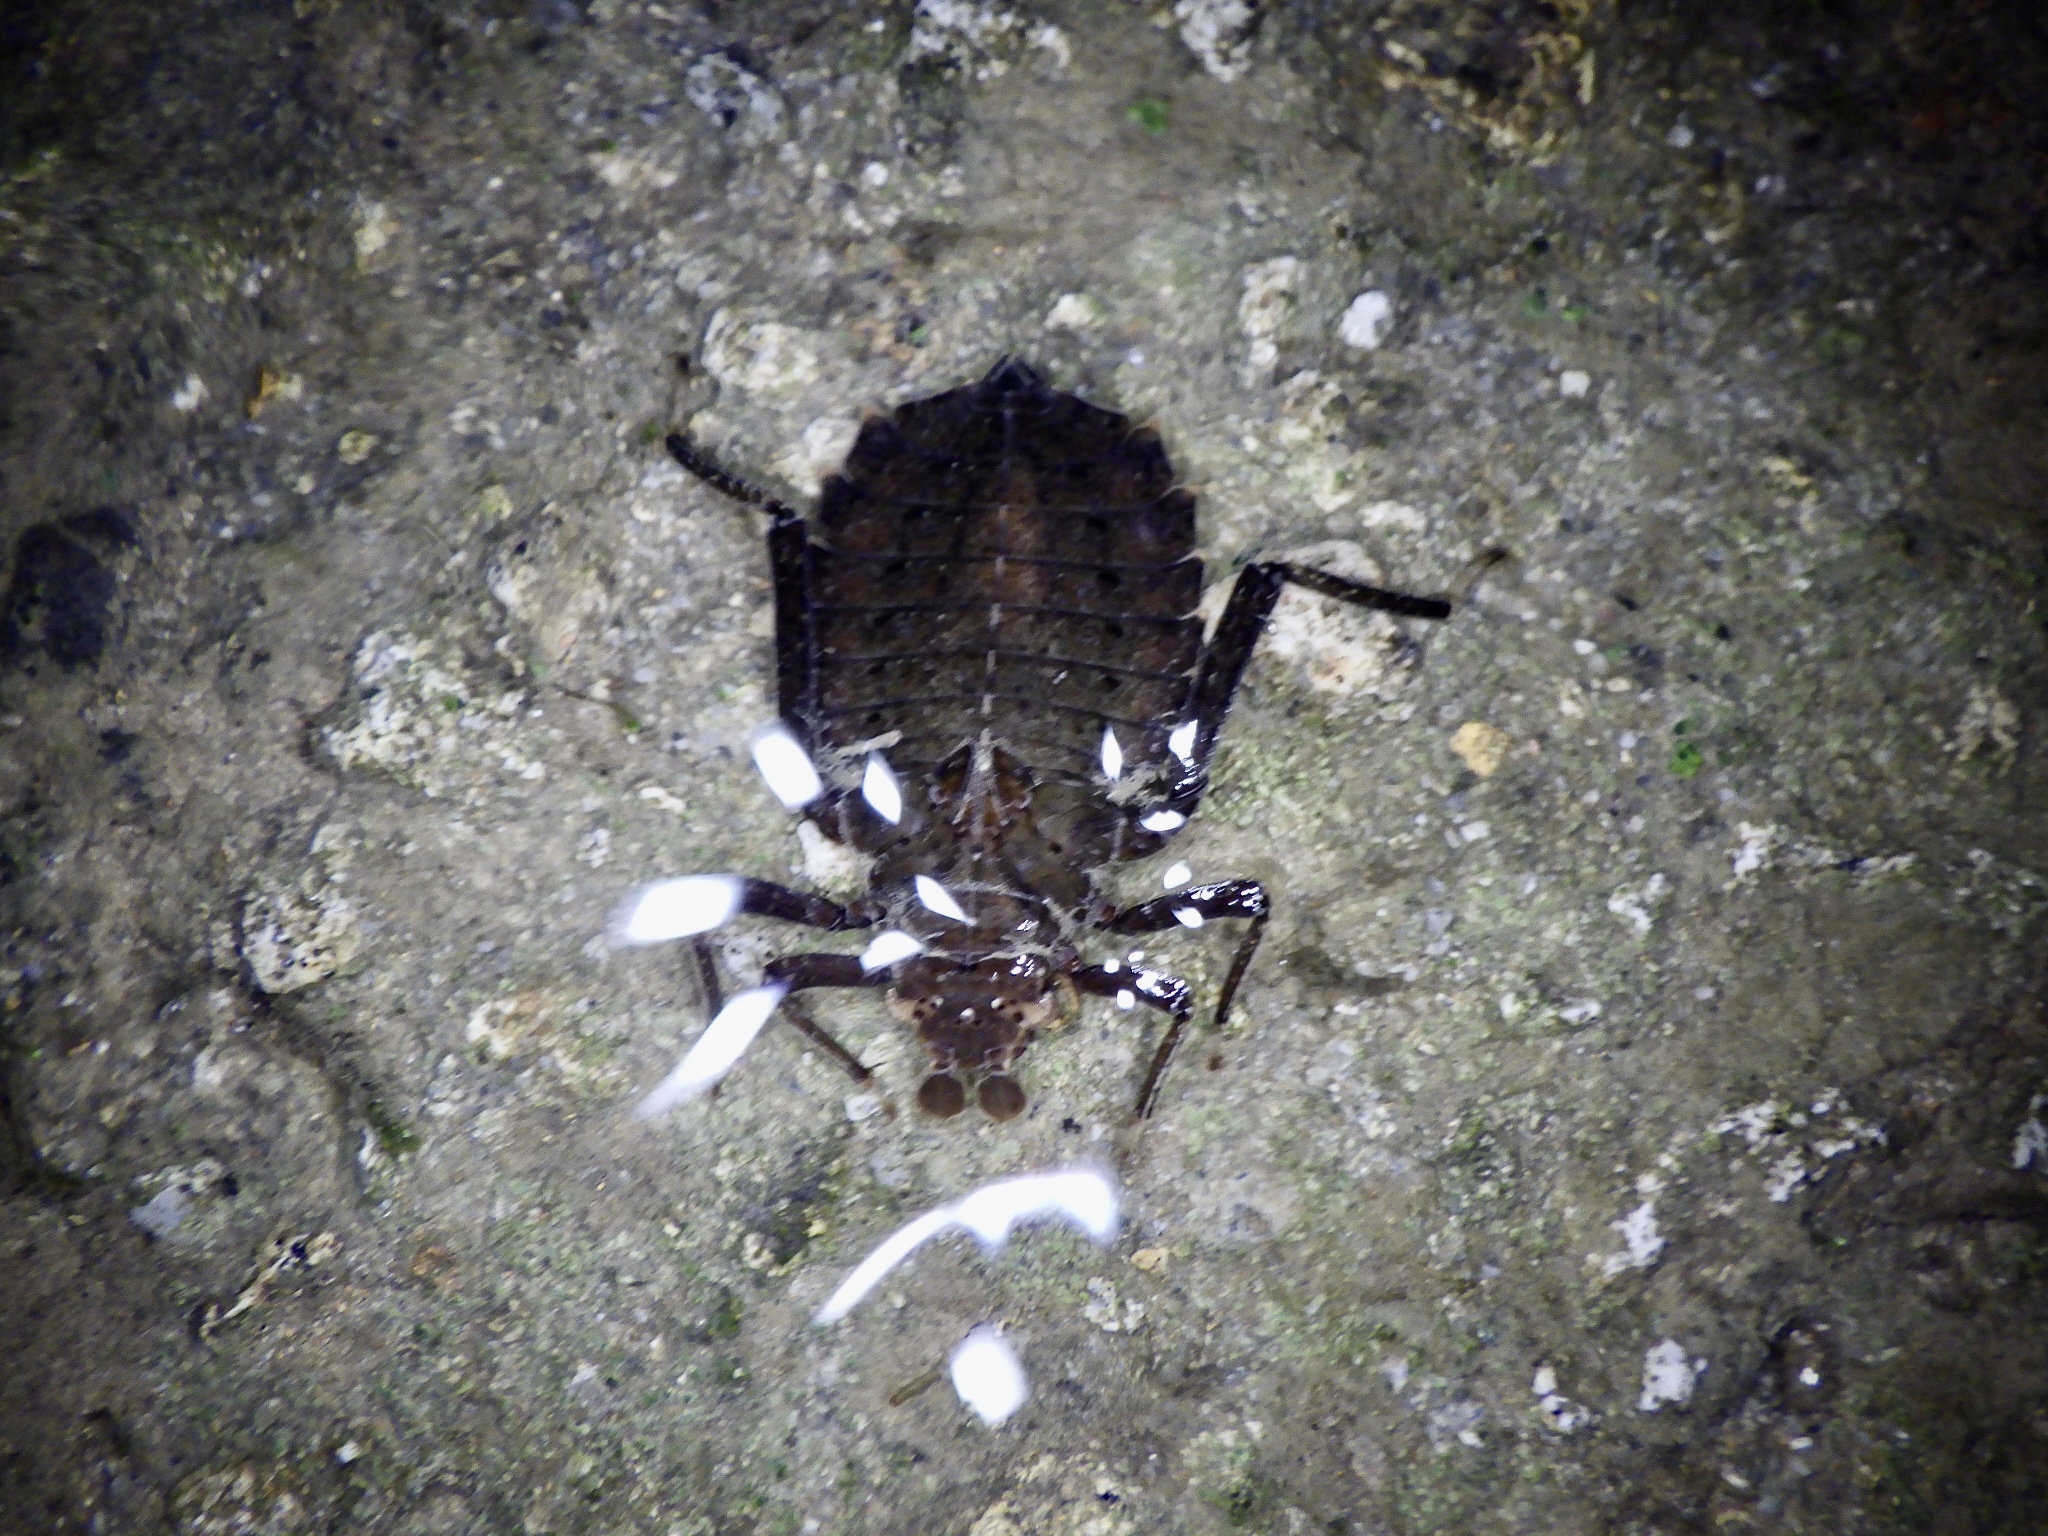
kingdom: Animalia
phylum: Arthropoda
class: Insecta
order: Odonata
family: Gomphidae
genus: Sieboldius
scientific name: Sieboldius albardae
